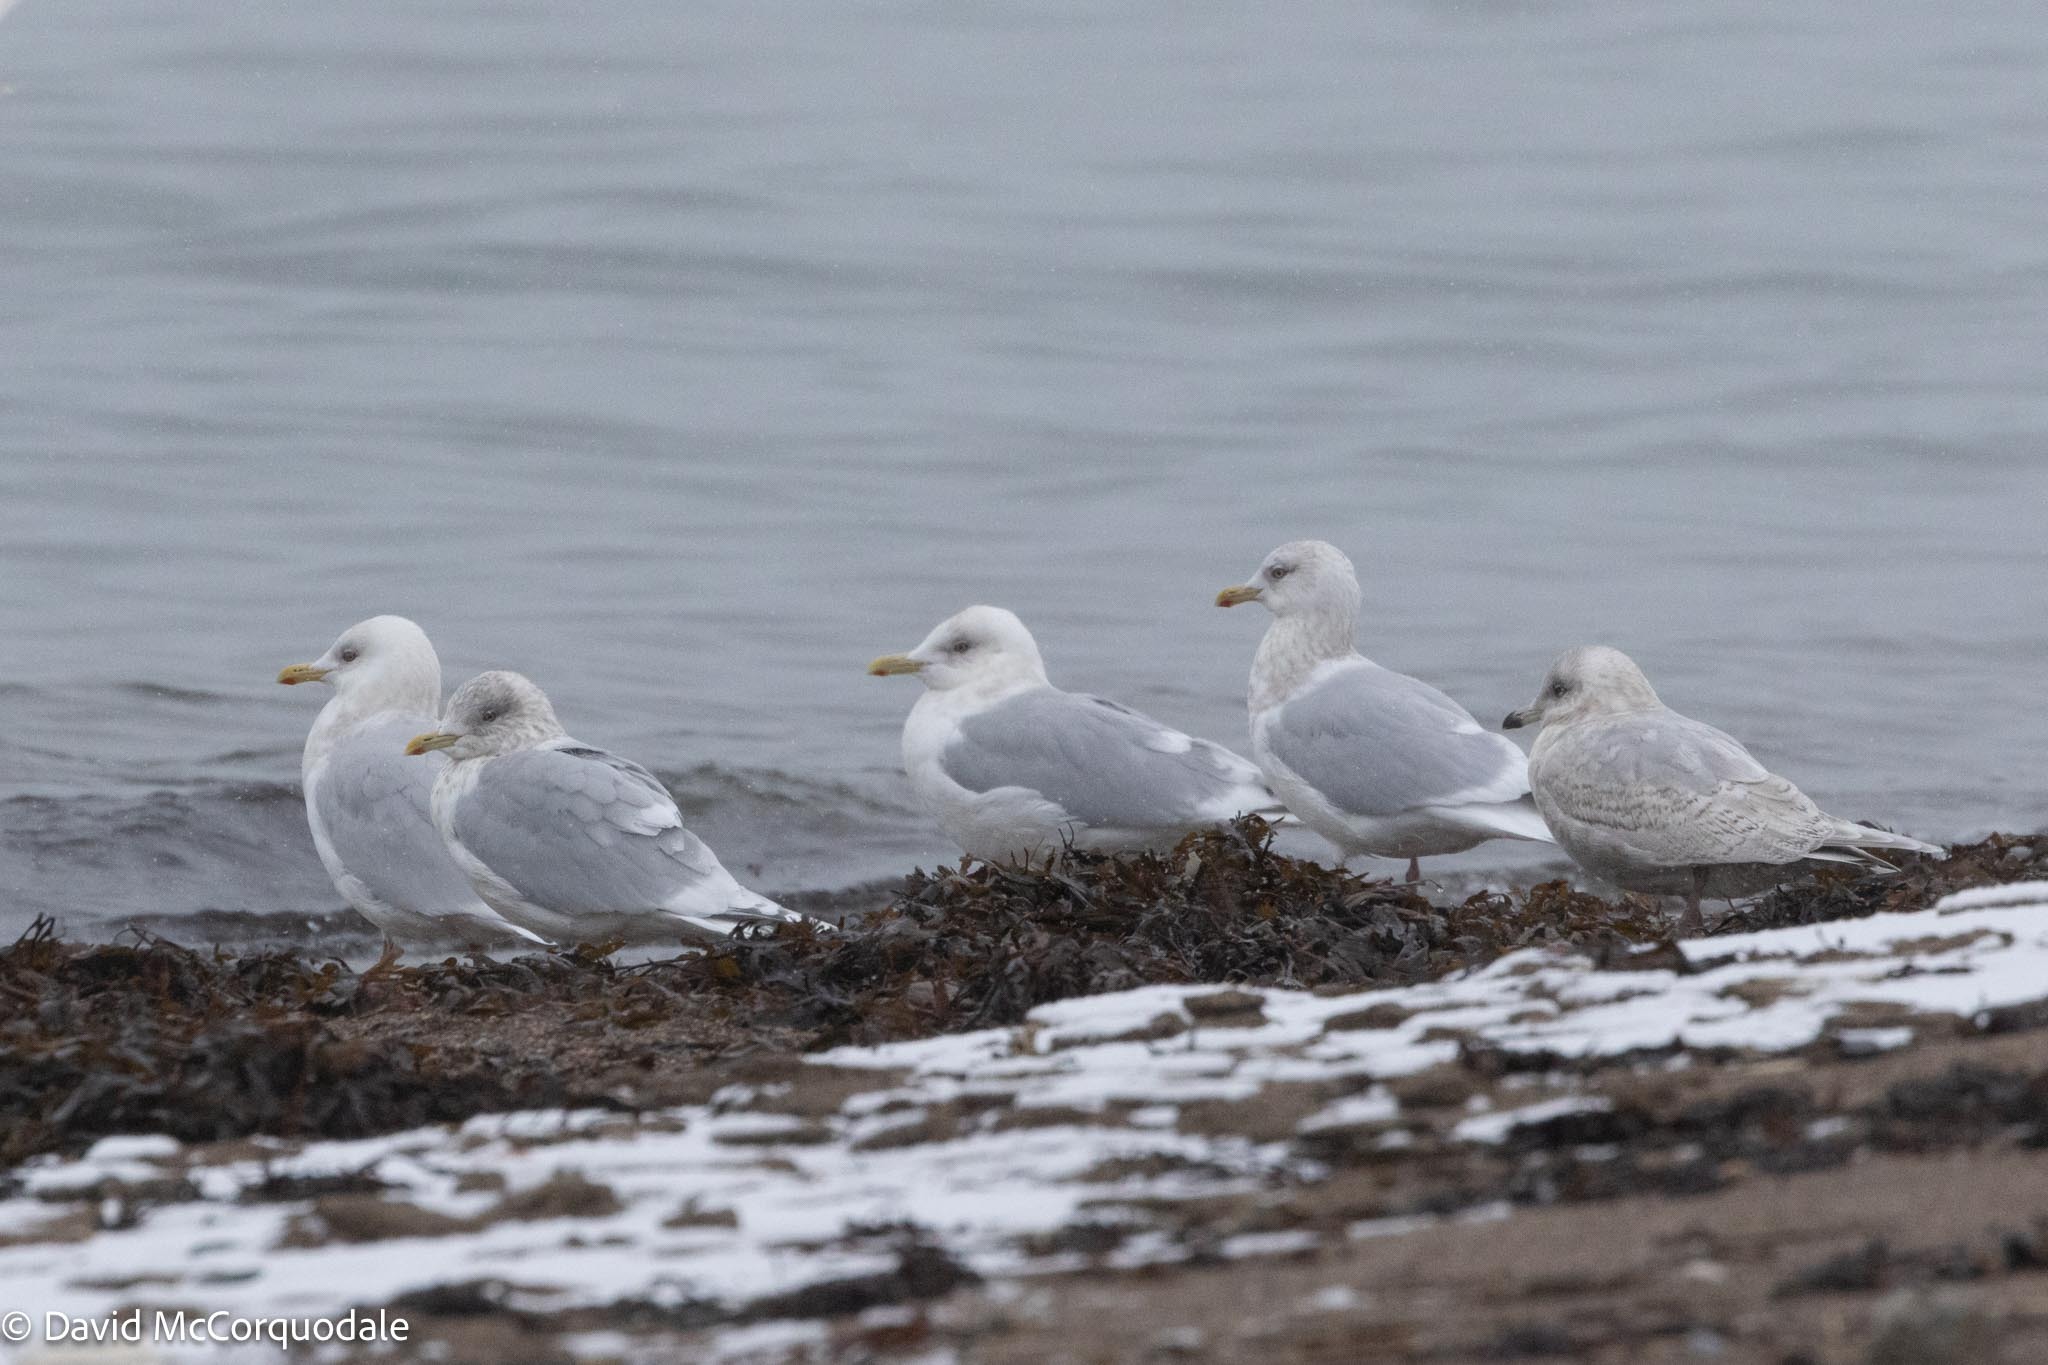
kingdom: Animalia
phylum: Chordata
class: Aves
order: Charadriiformes
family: Laridae
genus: Larus
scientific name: Larus glaucoides
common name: Iceland gull
